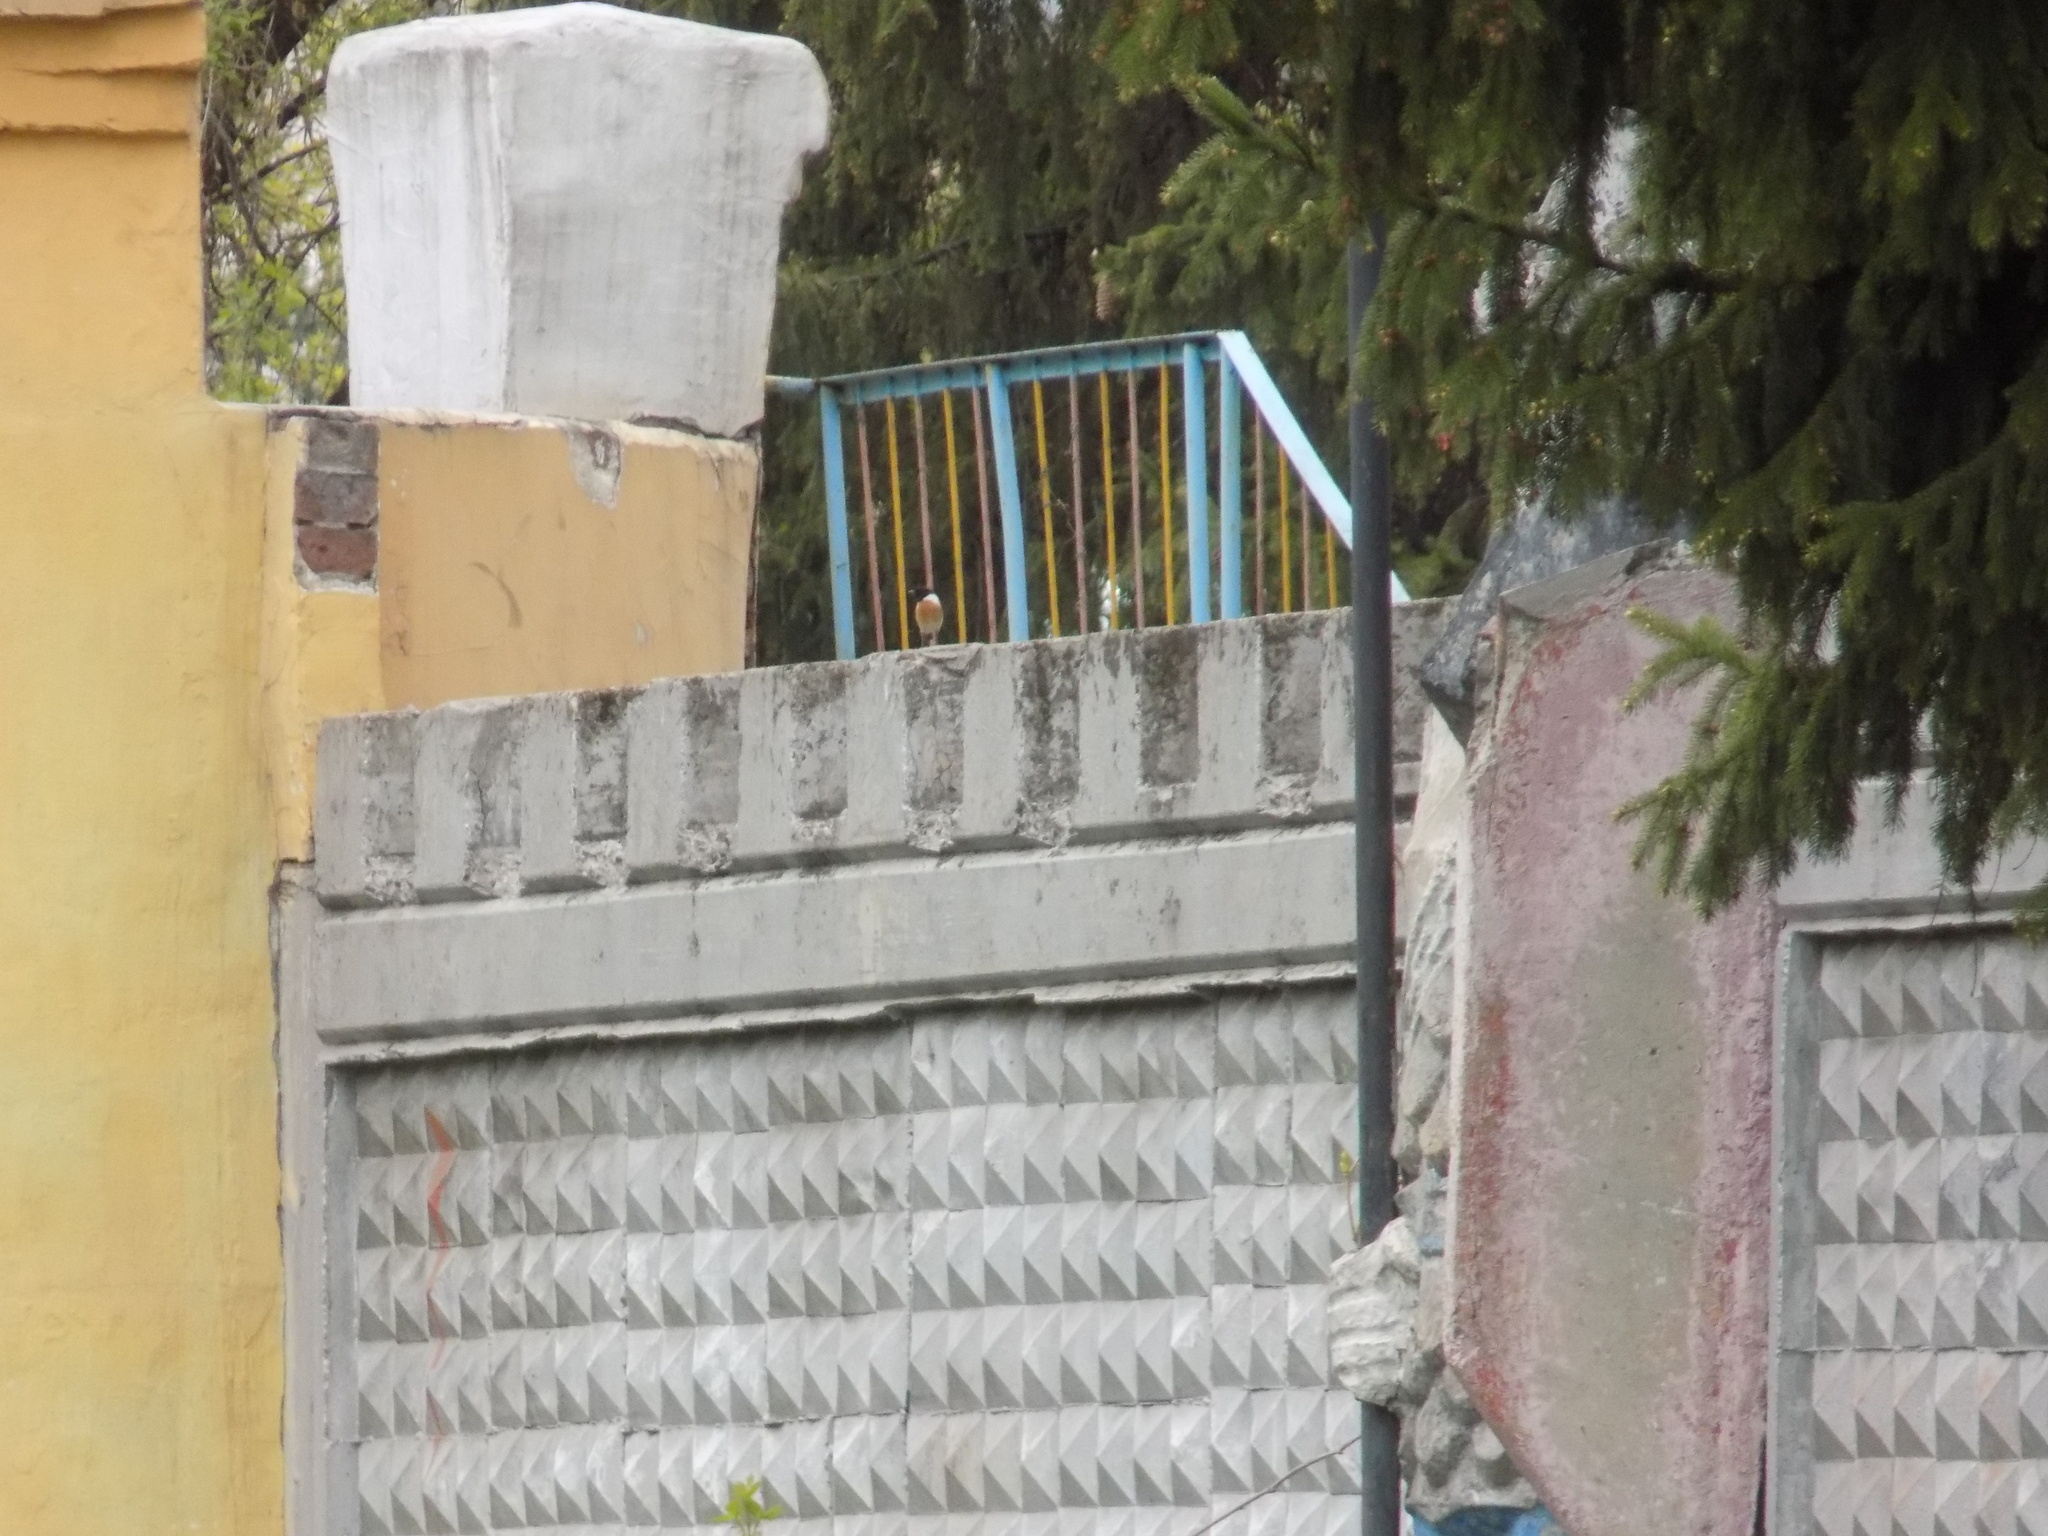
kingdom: Animalia
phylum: Chordata
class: Aves
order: Passeriformes
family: Muscicapidae
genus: Saxicola
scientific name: Saxicola maurus
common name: Siberian stonechat
